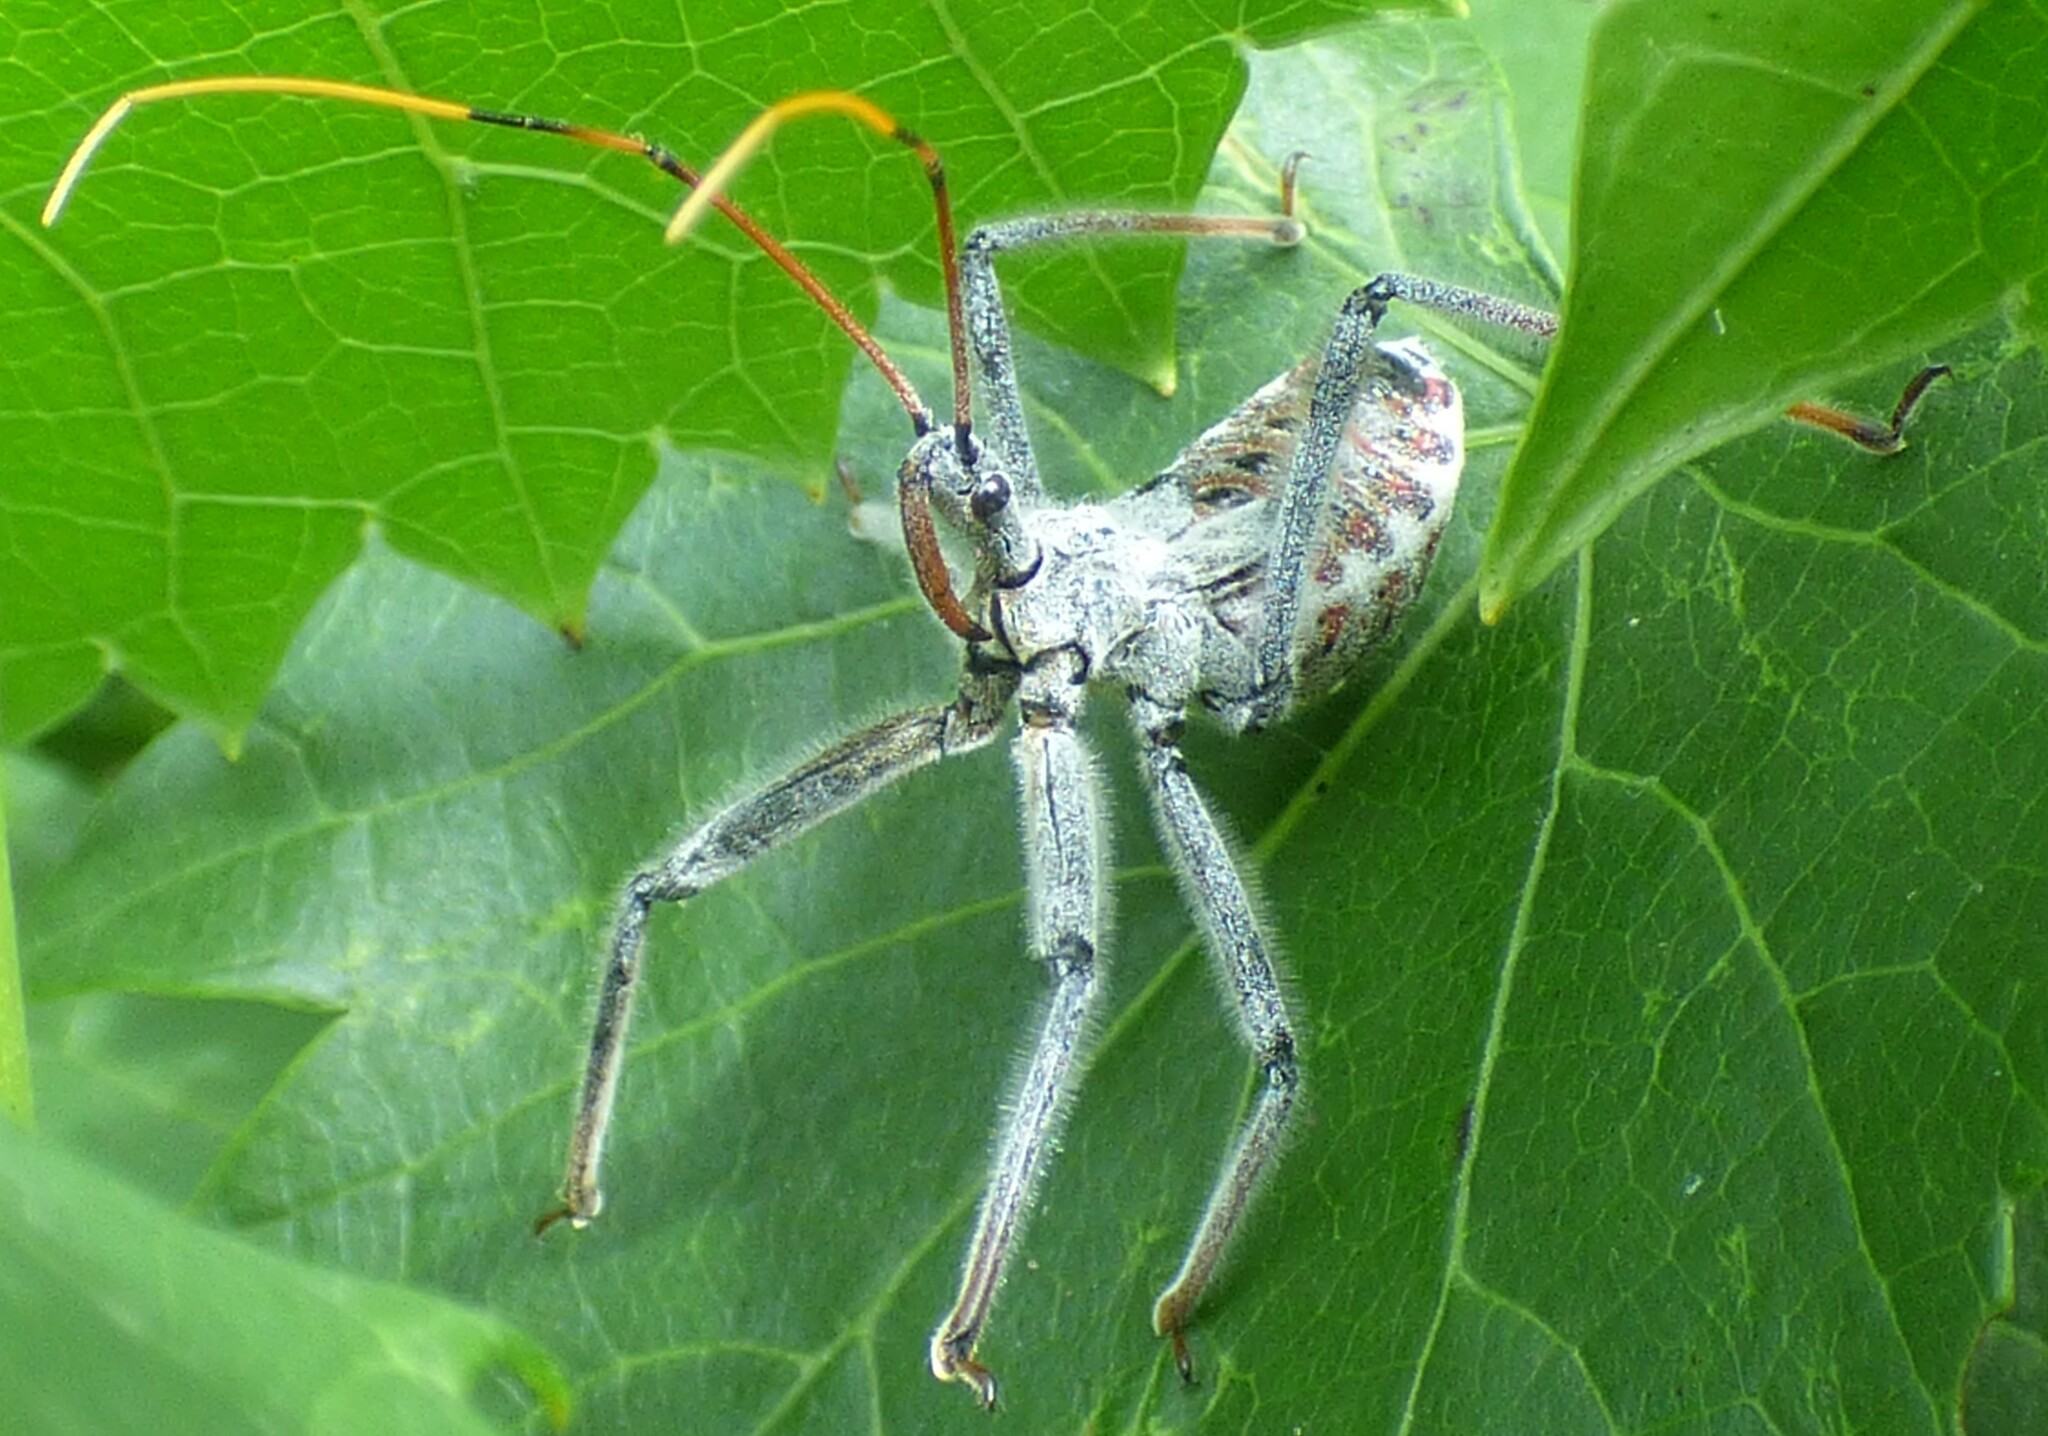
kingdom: Animalia
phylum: Arthropoda
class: Insecta
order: Hemiptera
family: Reduviidae
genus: Arilus
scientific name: Arilus cristatus
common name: North american wheel bug
